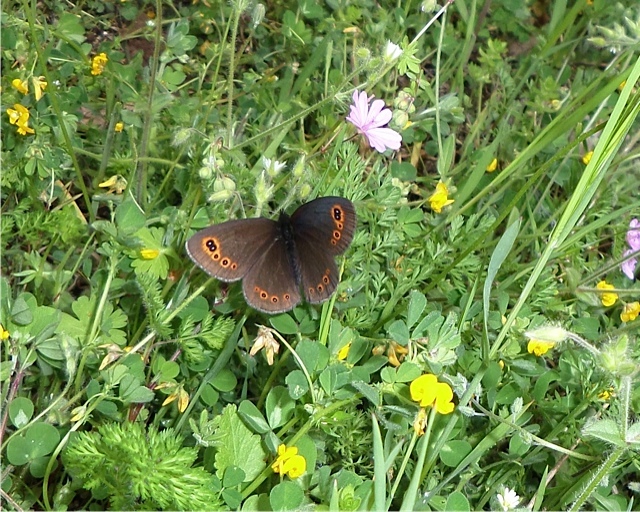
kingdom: Animalia
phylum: Arthropoda
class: Insecta
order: Lepidoptera
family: Nymphalidae
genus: Erebia
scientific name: Erebia medusa
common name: Woodland ringlet
